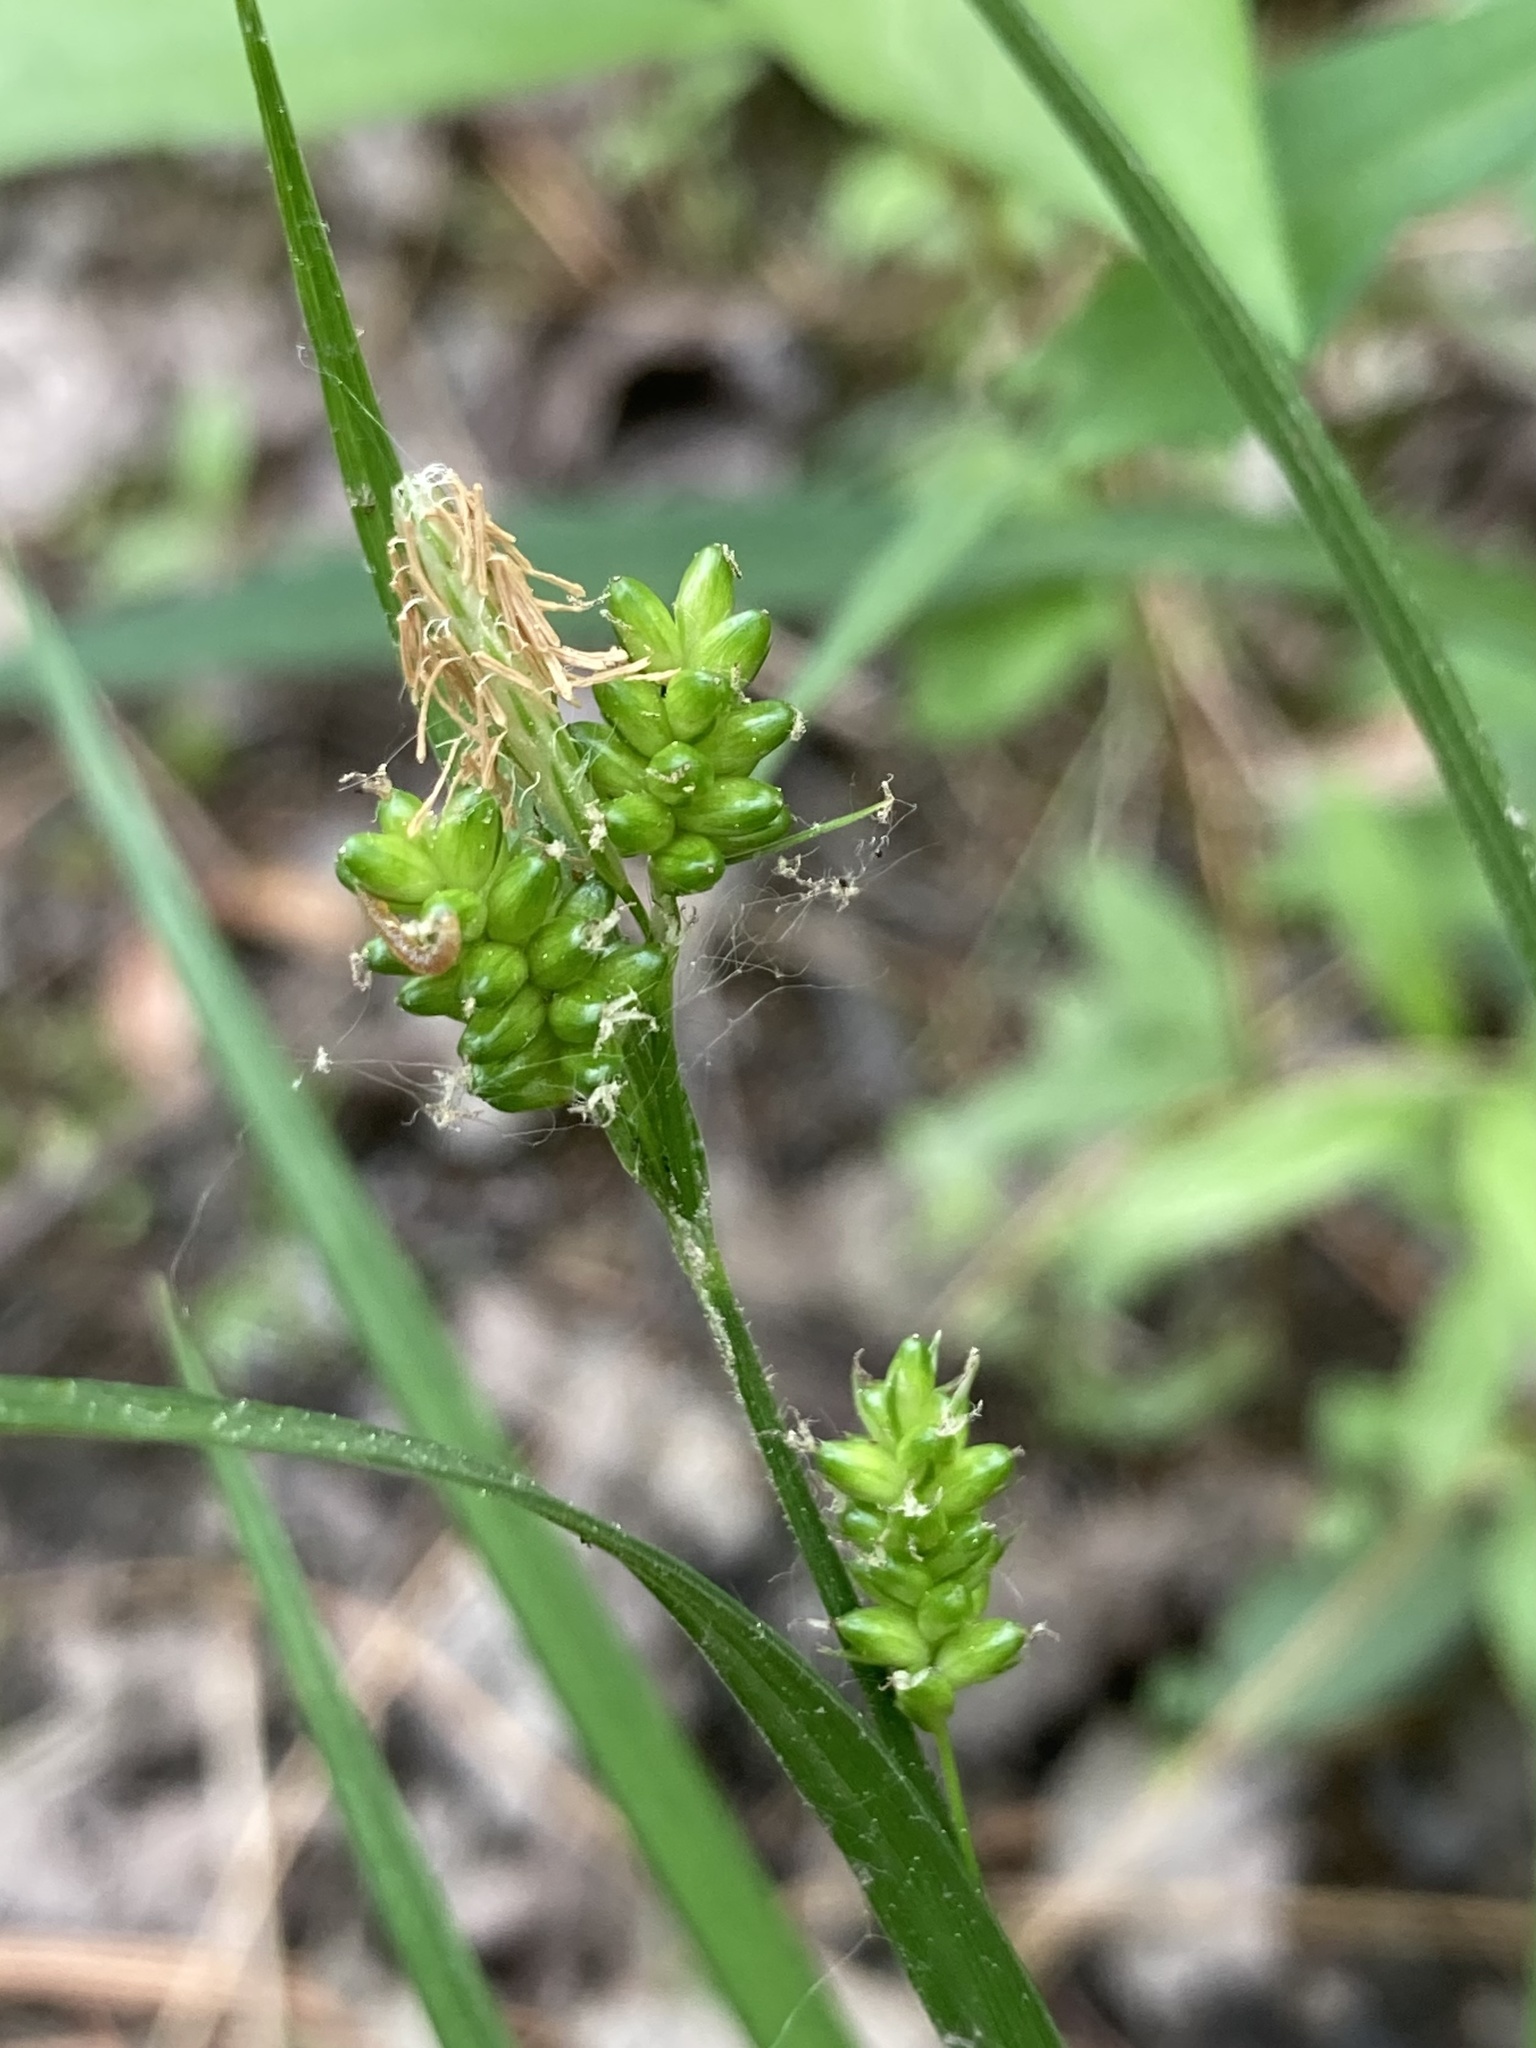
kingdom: Plantae
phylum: Tracheophyta
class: Liliopsida
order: Poales
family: Cyperaceae
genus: Carex
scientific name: Carex pallescens
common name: Pale sedge
